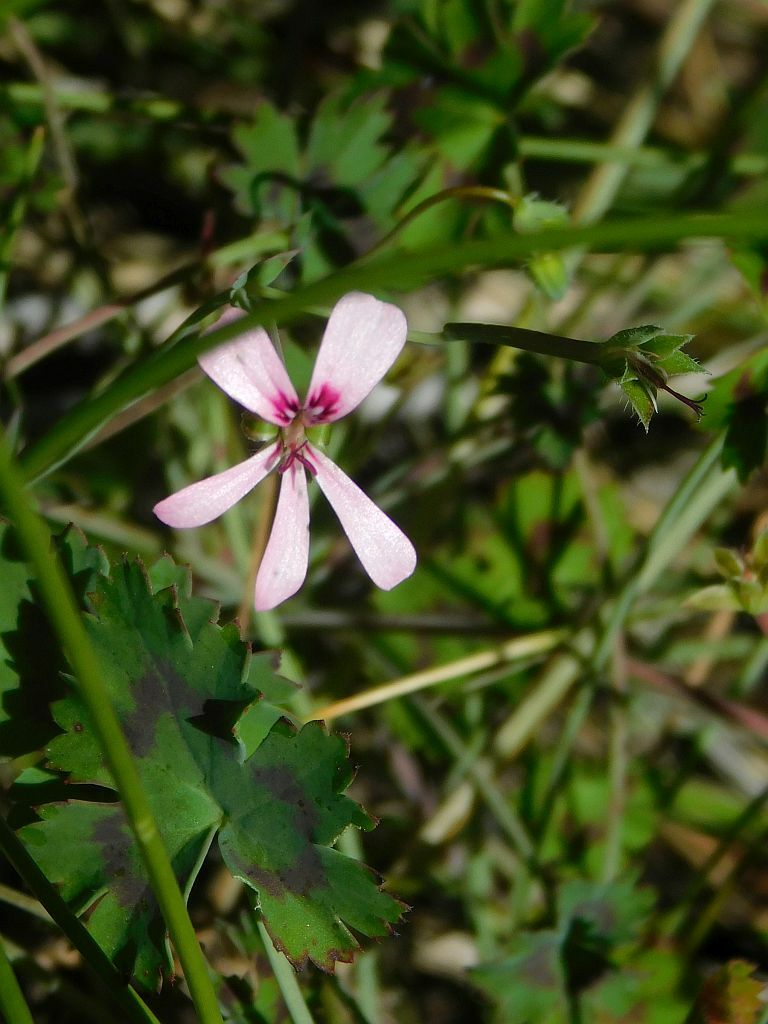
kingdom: Plantae
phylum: Tracheophyta
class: Magnoliopsida
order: Geraniales
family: Geraniaceae
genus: Pelargonium
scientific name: Pelargonium patulum
